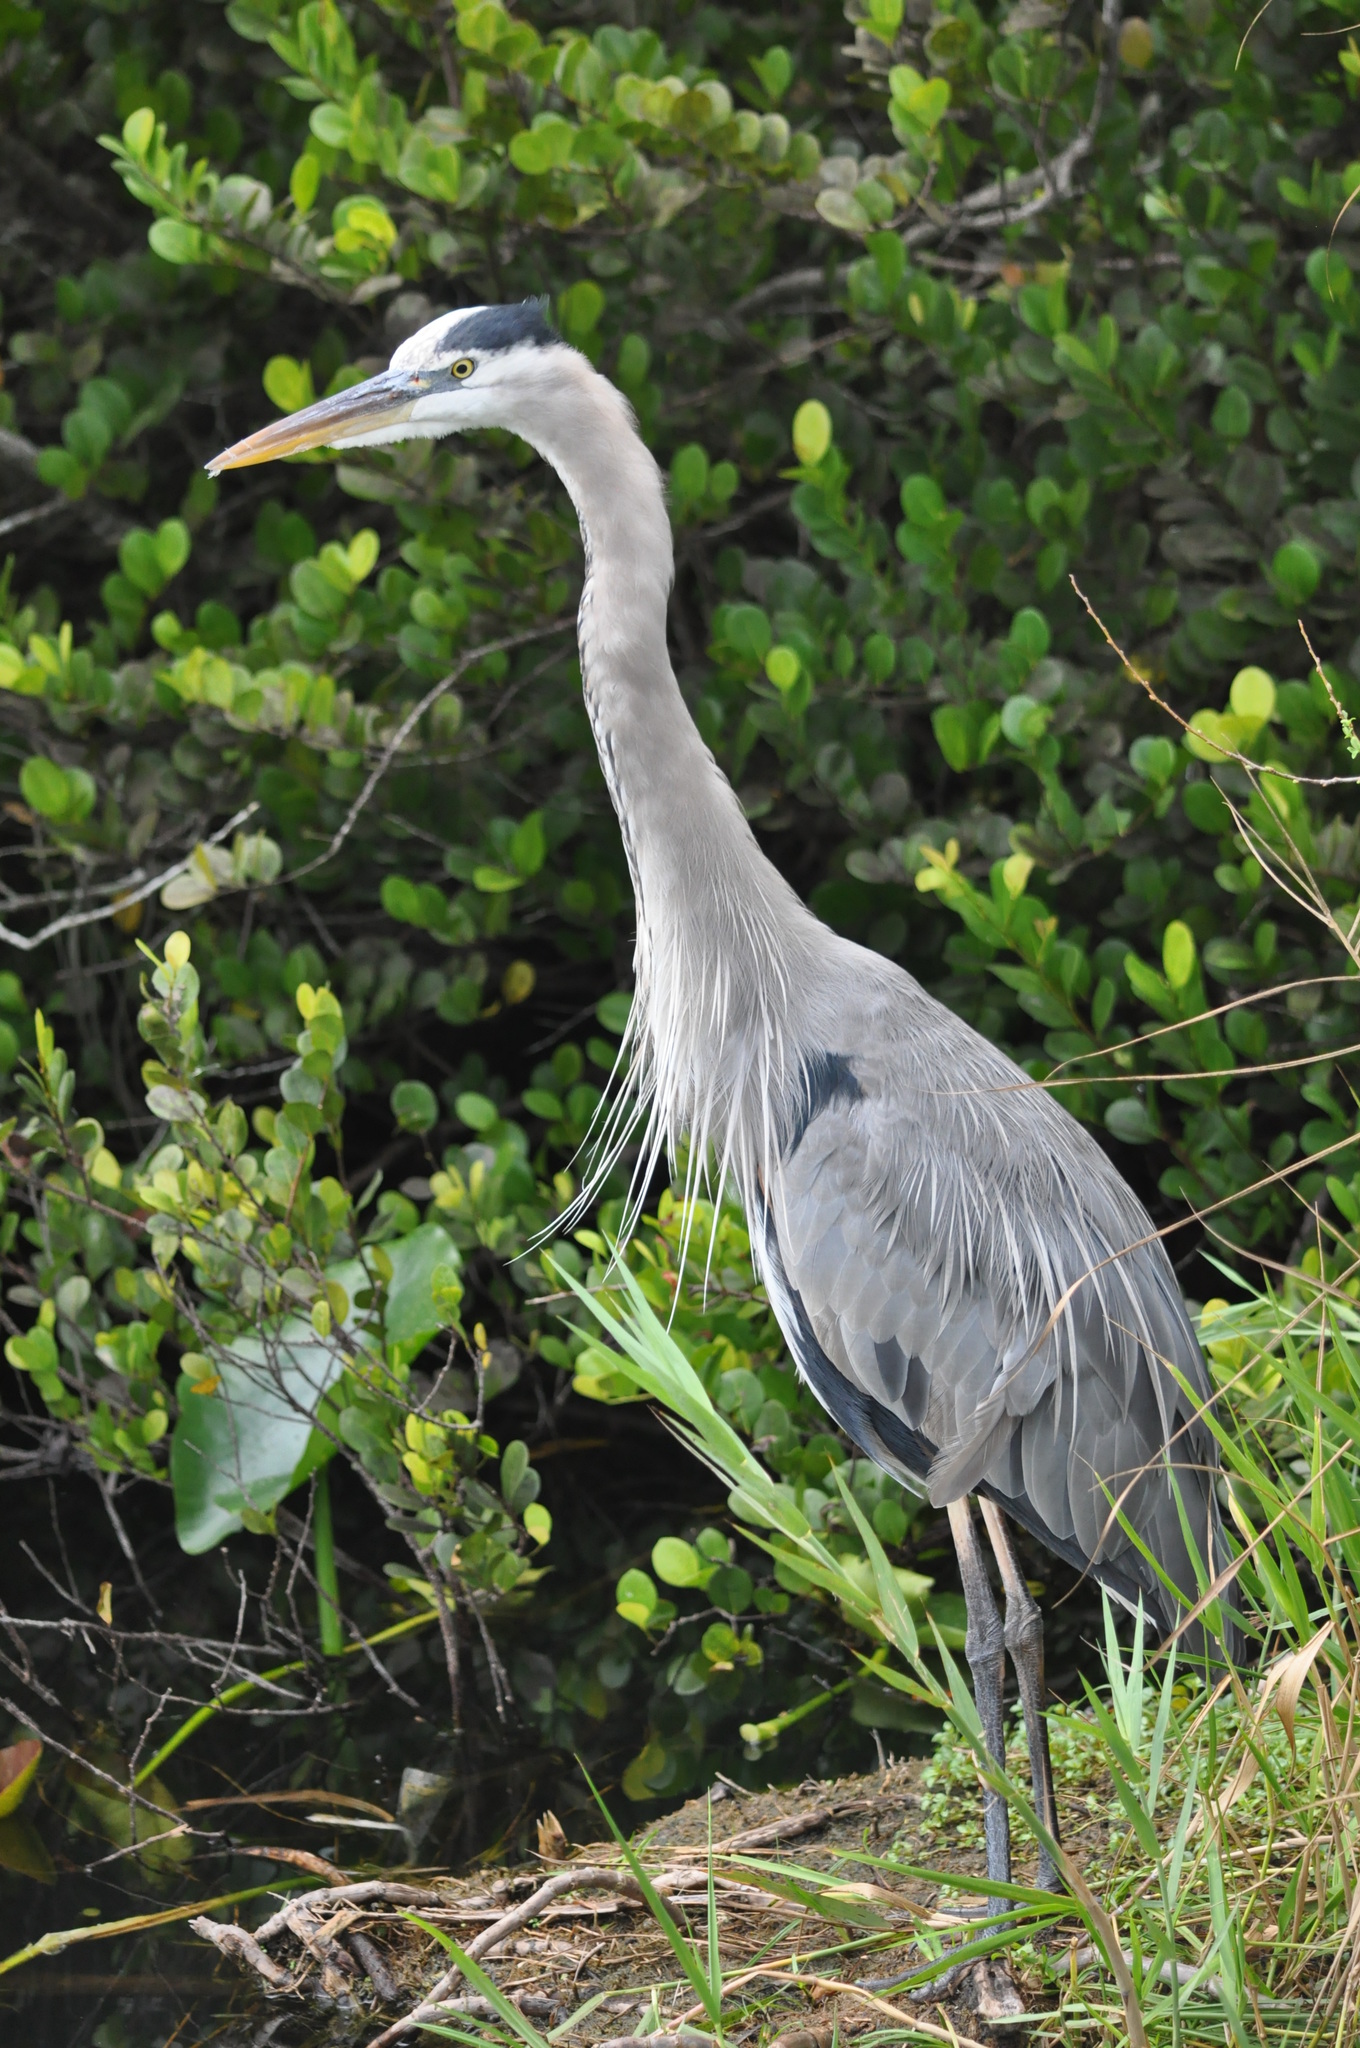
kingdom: Animalia
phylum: Chordata
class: Aves
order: Pelecaniformes
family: Ardeidae
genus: Ardea
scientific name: Ardea herodias
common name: Great blue heron
